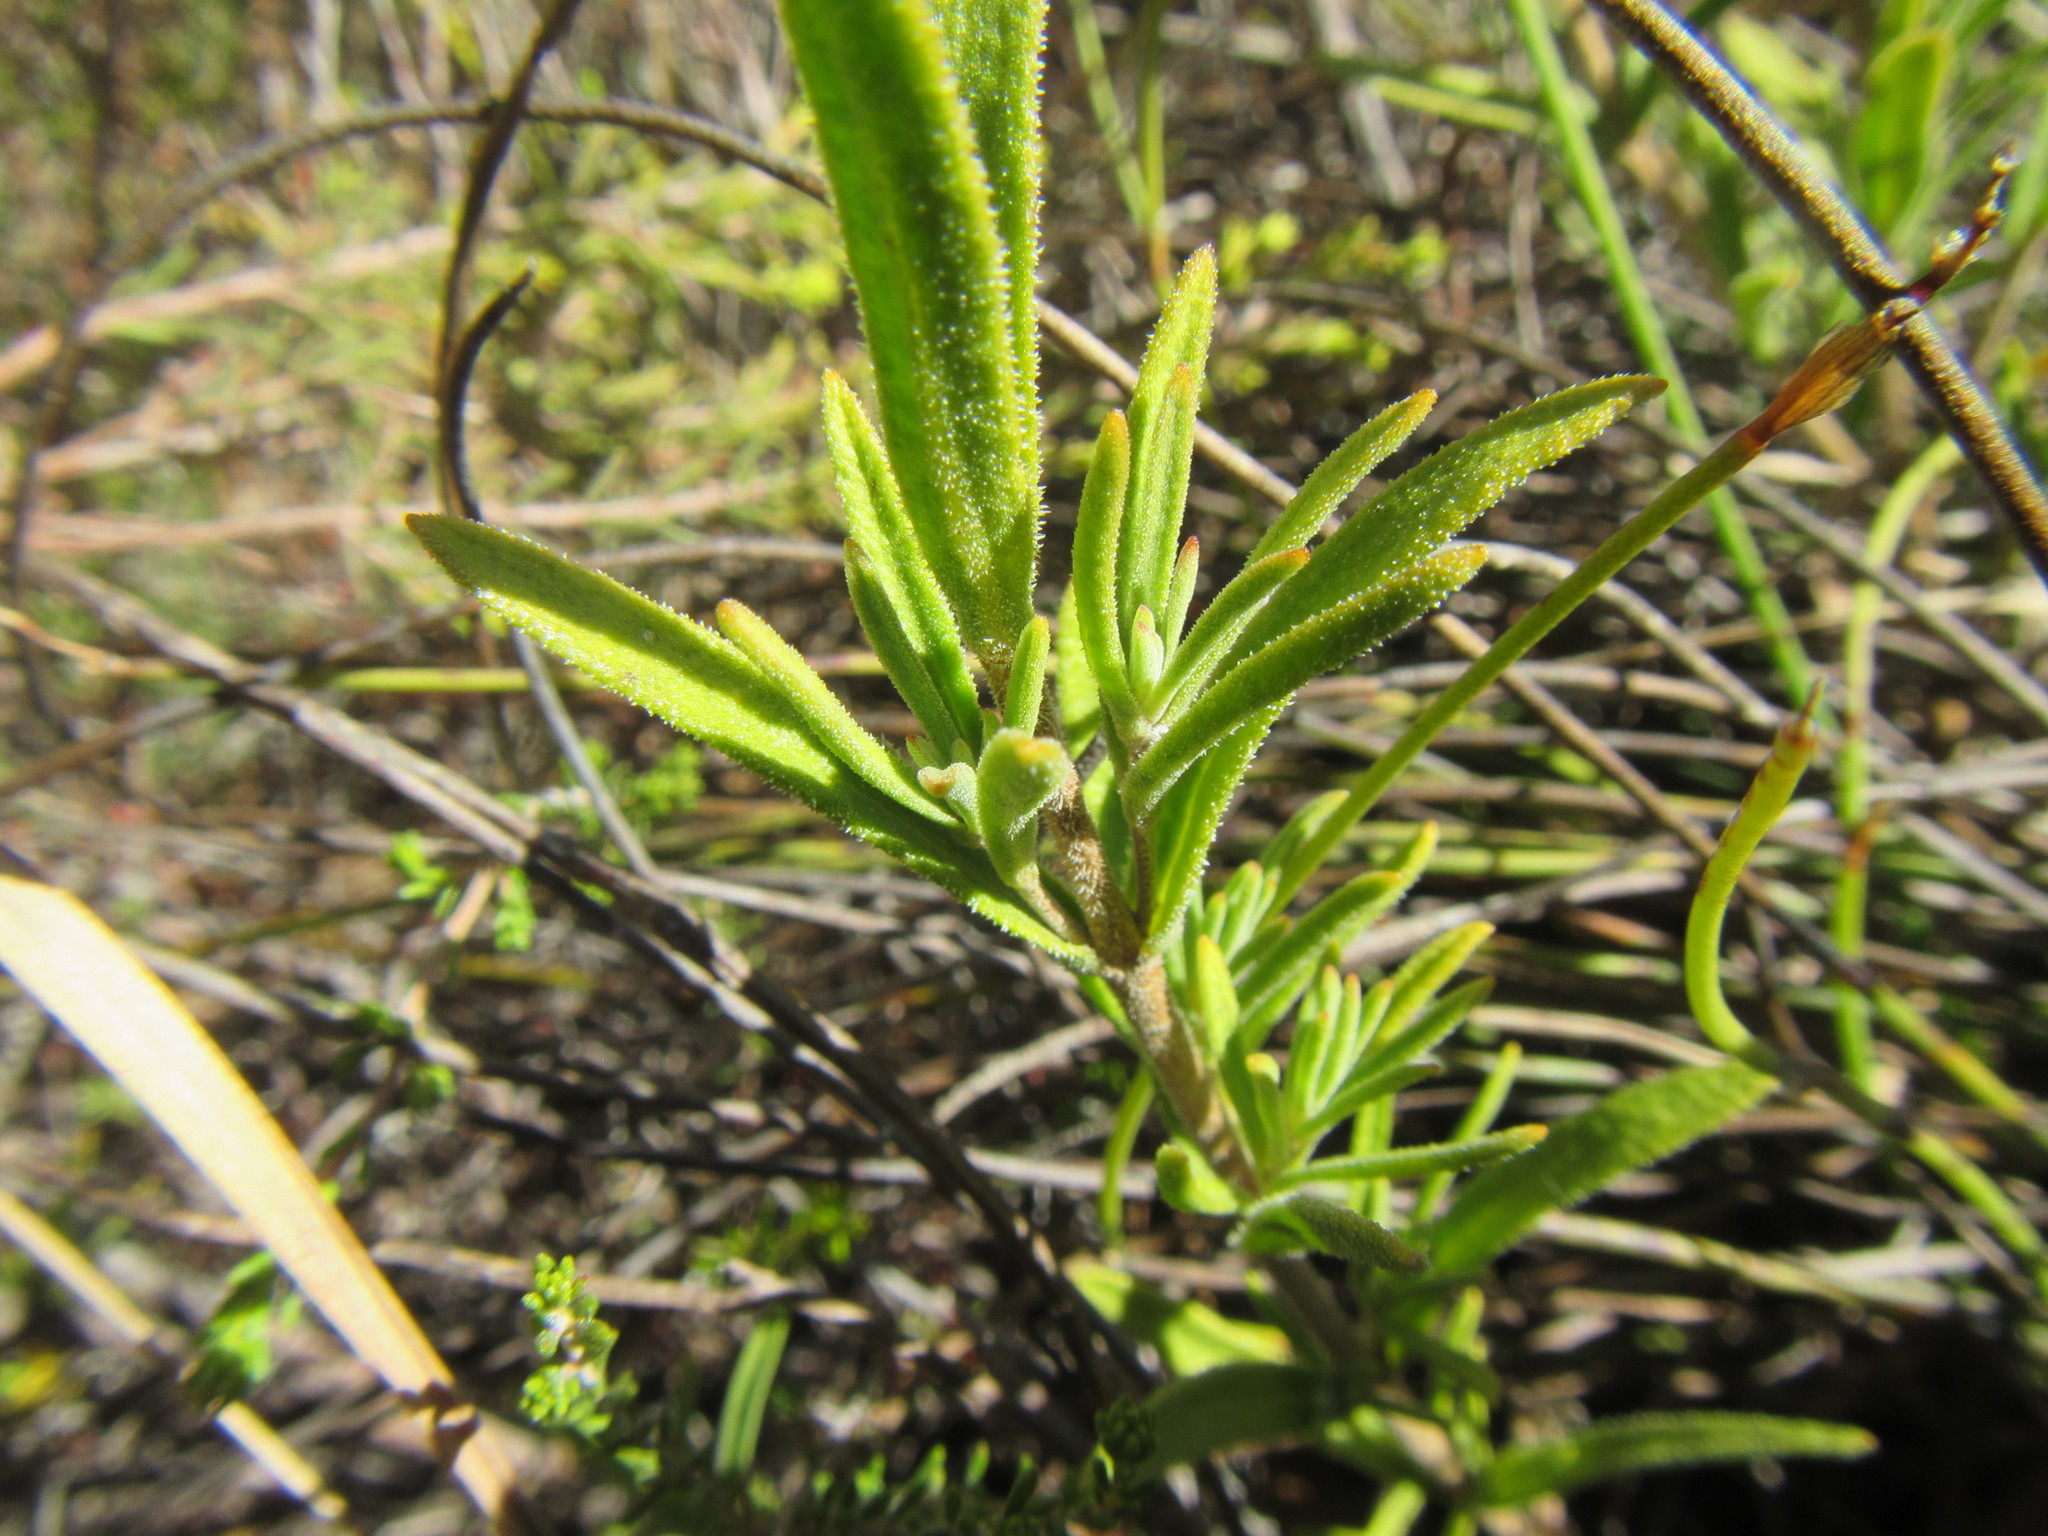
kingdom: Plantae
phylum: Tracheophyta
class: Magnoliopsida
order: Asterales
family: Asteraceae
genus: Pteronia
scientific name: Pteronia scabra
